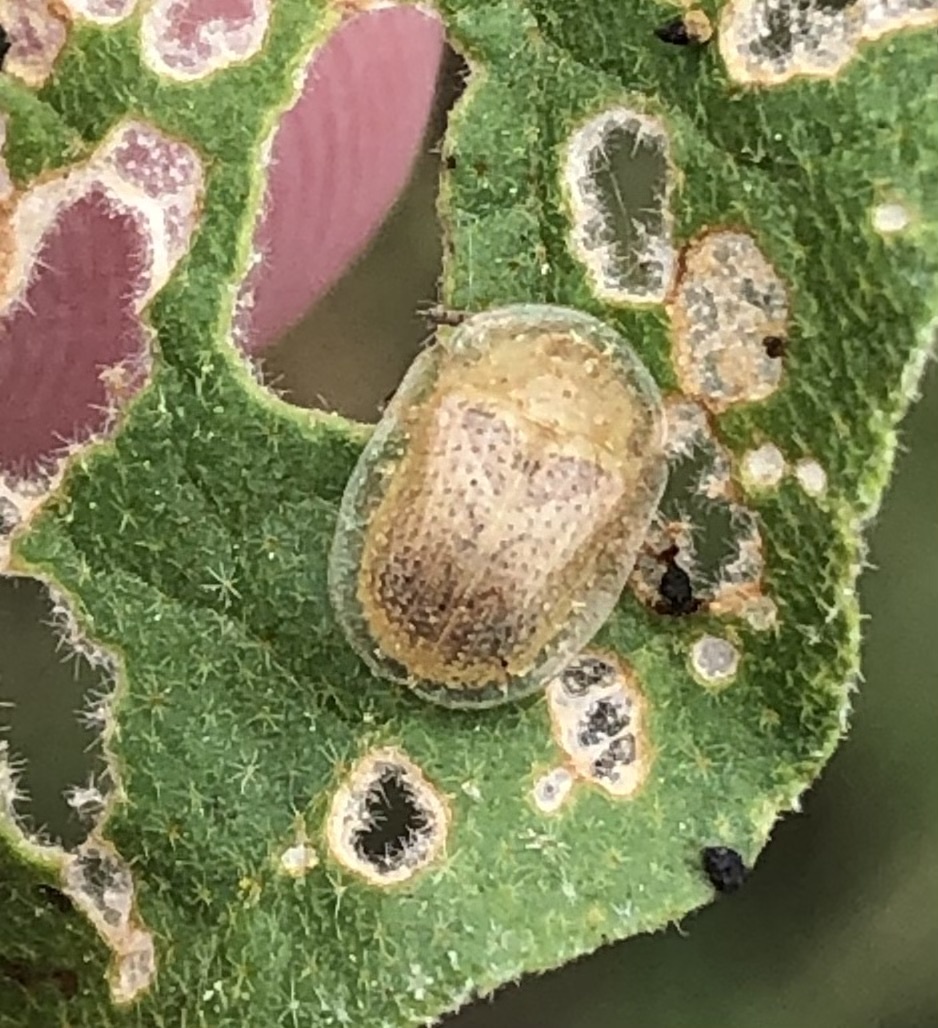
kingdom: Animalia
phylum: Arthropoda
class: Insecta
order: Coleoptera
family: Chrysomelidae
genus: Gratiana
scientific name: Gratiana pallidula
